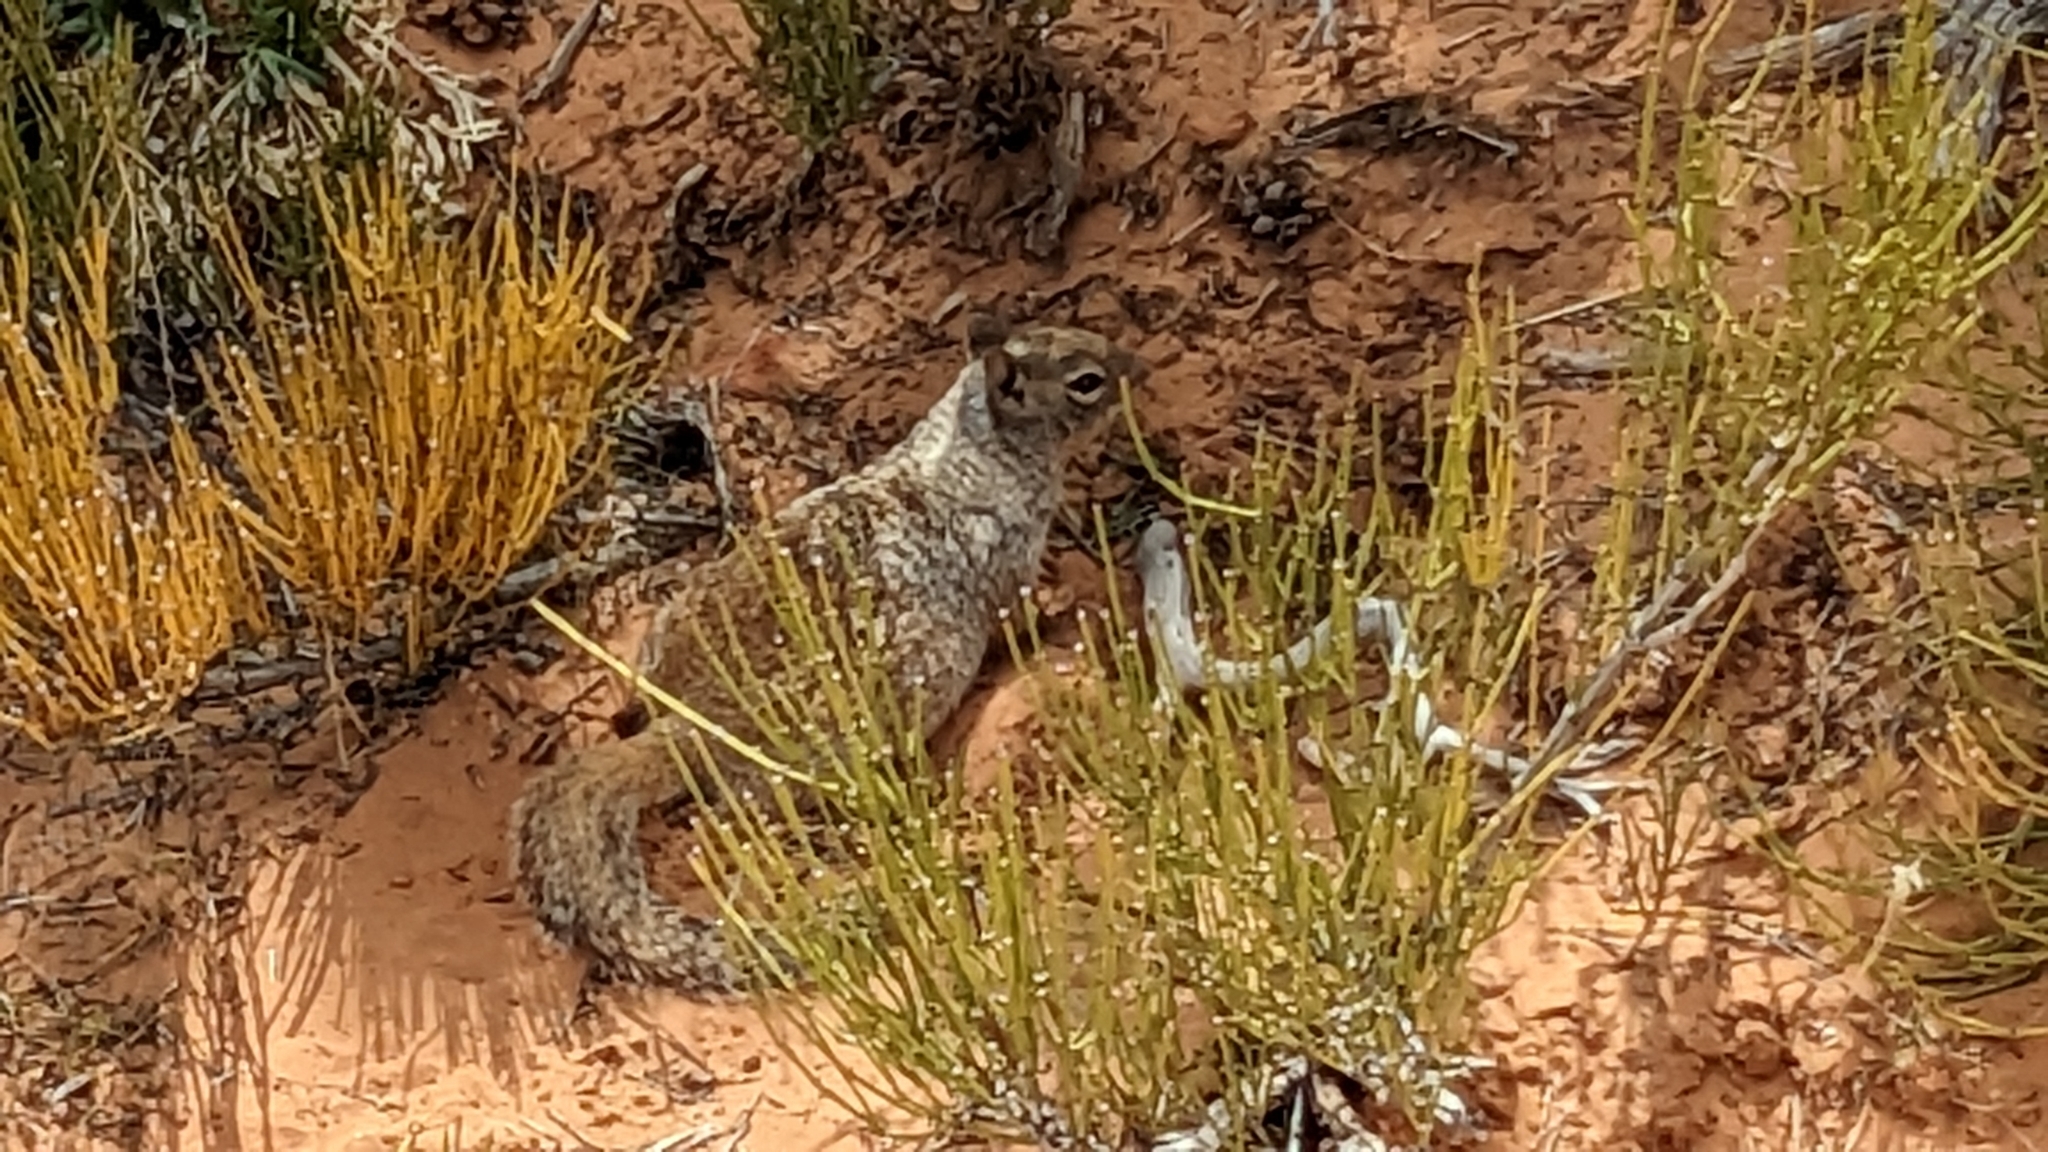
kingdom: Animalia
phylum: Chordata
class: Mammalia
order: Rodentia
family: Sciuridae
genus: Otospermophilus
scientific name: Otospermophilus variegatus
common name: Rock squirrel
